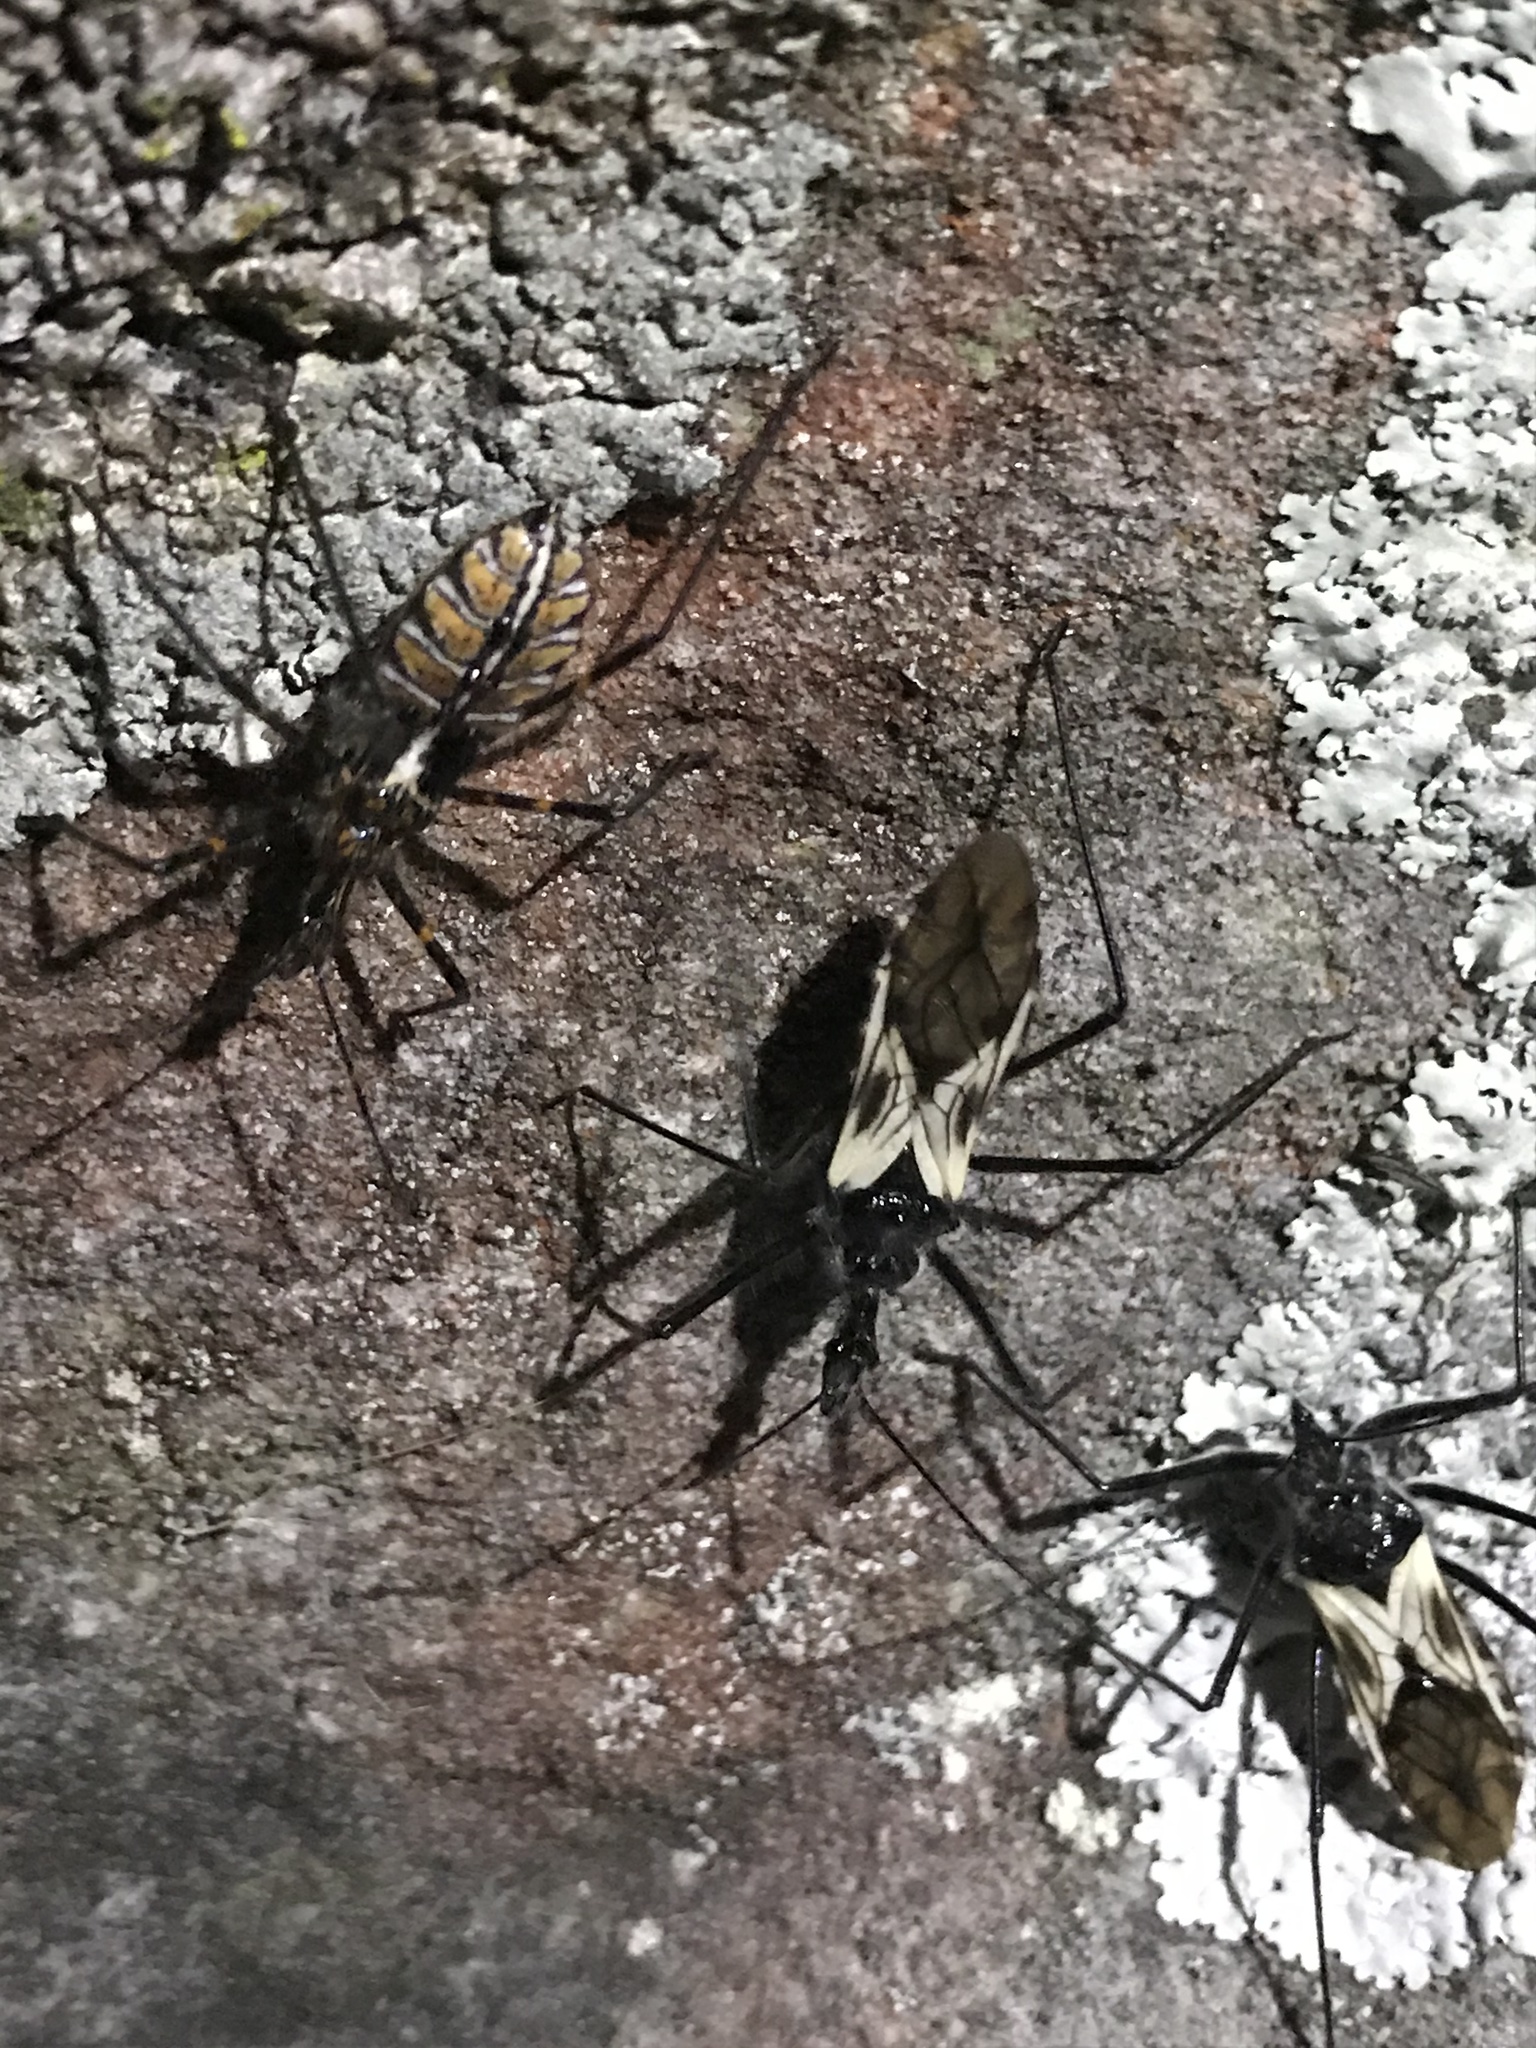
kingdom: Animalia
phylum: Arthropoda
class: Insecta
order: Hemiptera
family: Reduviidae
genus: Ambastus
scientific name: Ambastus villosus
